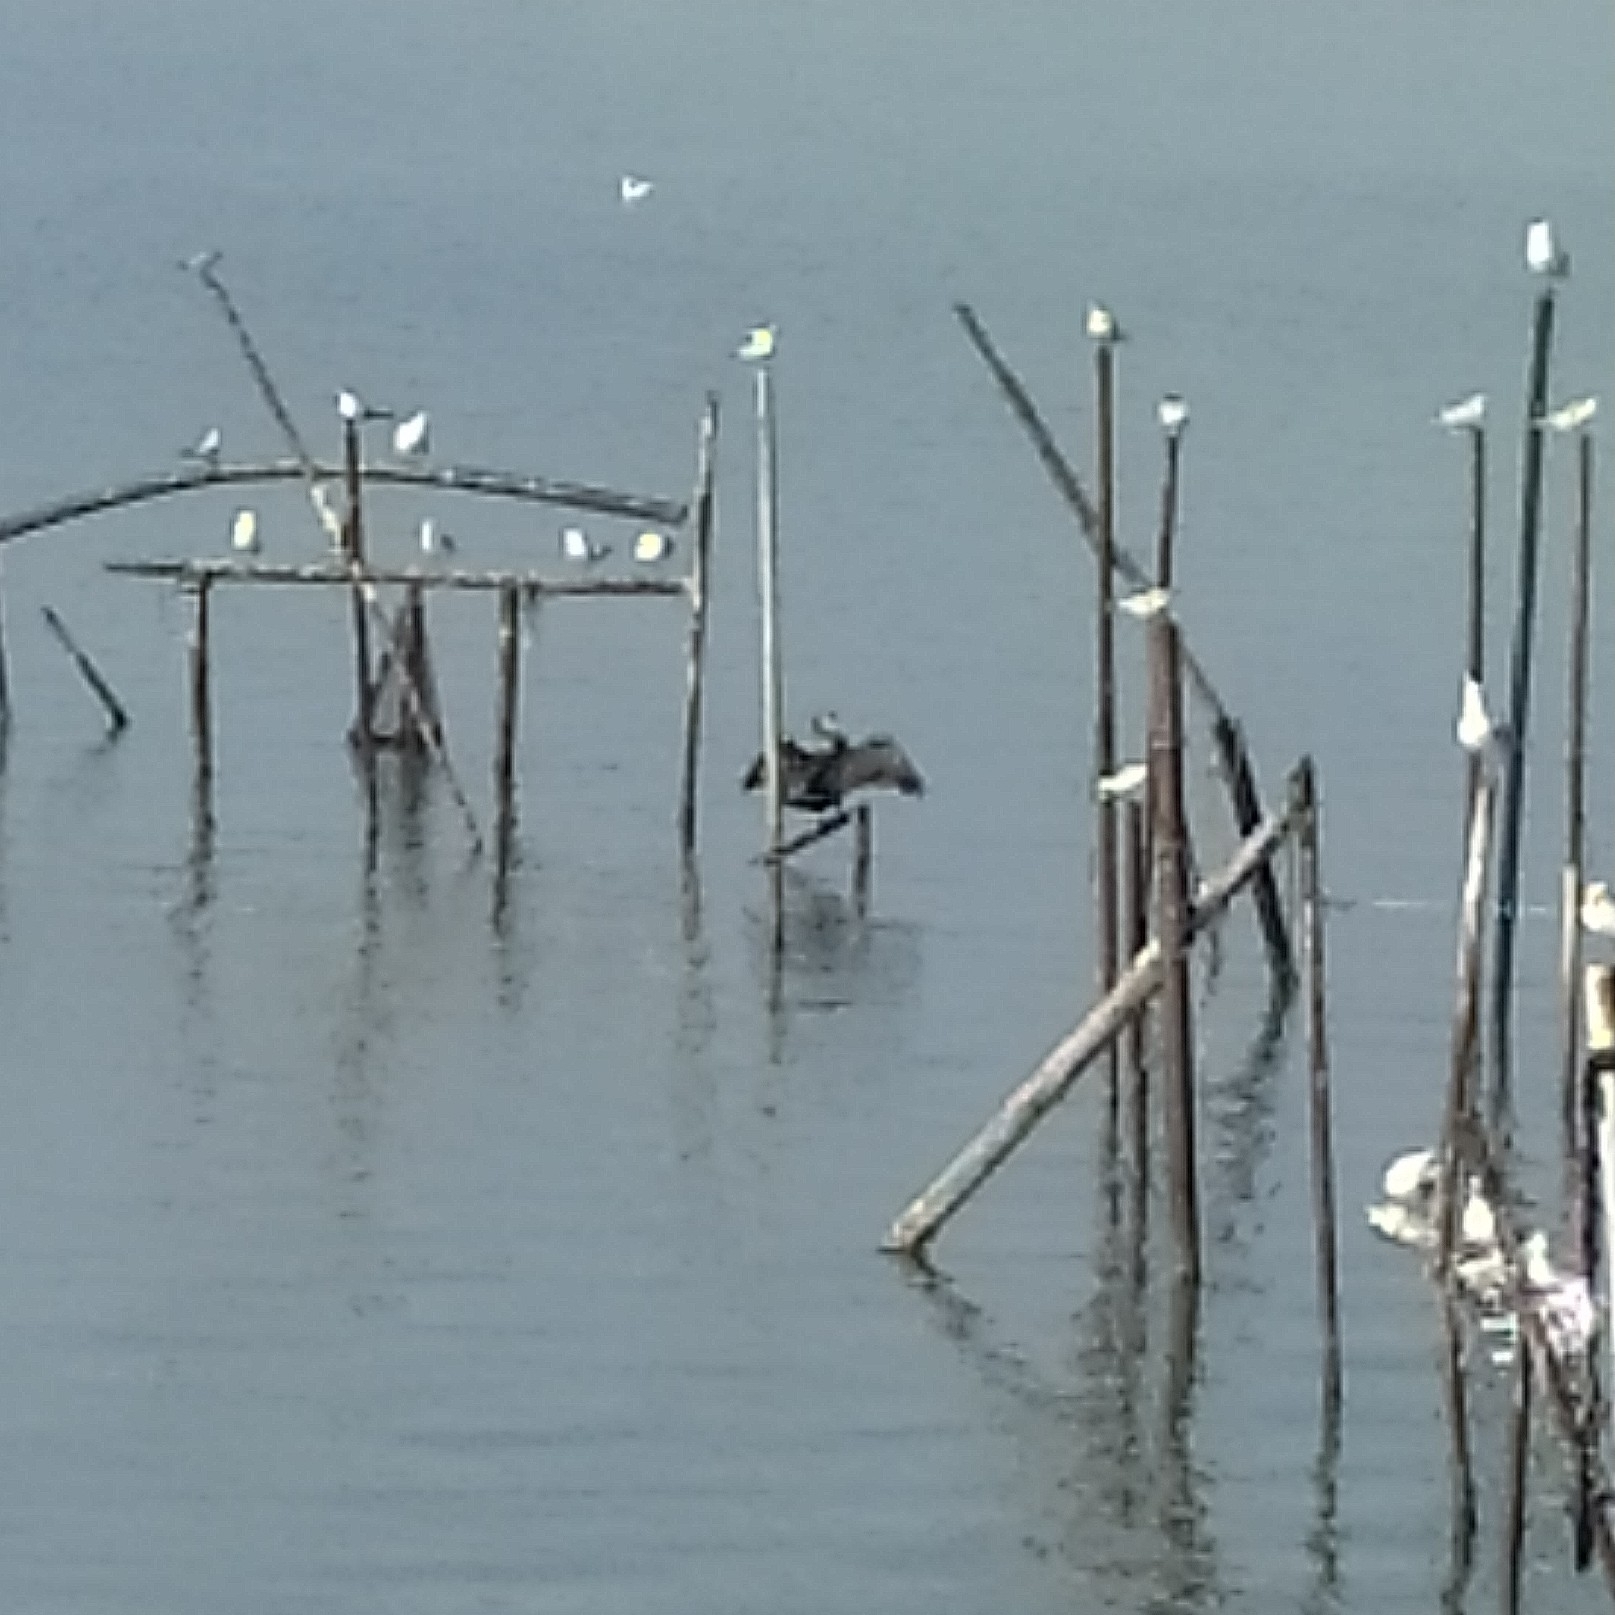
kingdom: Animalia
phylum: Chordata
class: Aves
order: Suliformes
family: Phalacrocoracidae
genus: Phalacrocorax
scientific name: Phalacrocorax carbo
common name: Great cormorant
